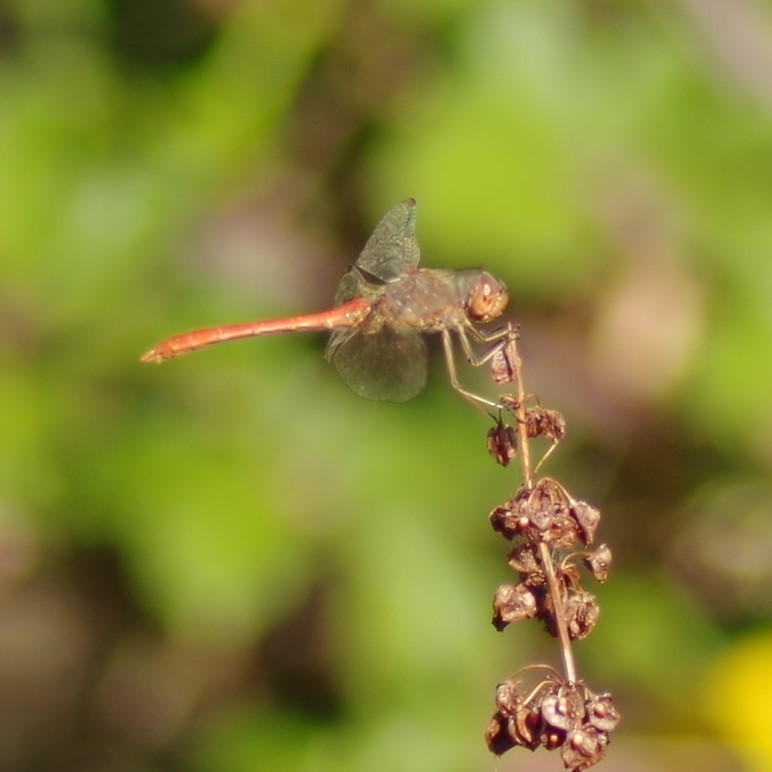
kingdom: Animalia
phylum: Arthropoda
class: Insecta
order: Odonata
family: Libellulidae
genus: Sympetrum
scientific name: Sympetrum meridionale
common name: Southern darter
